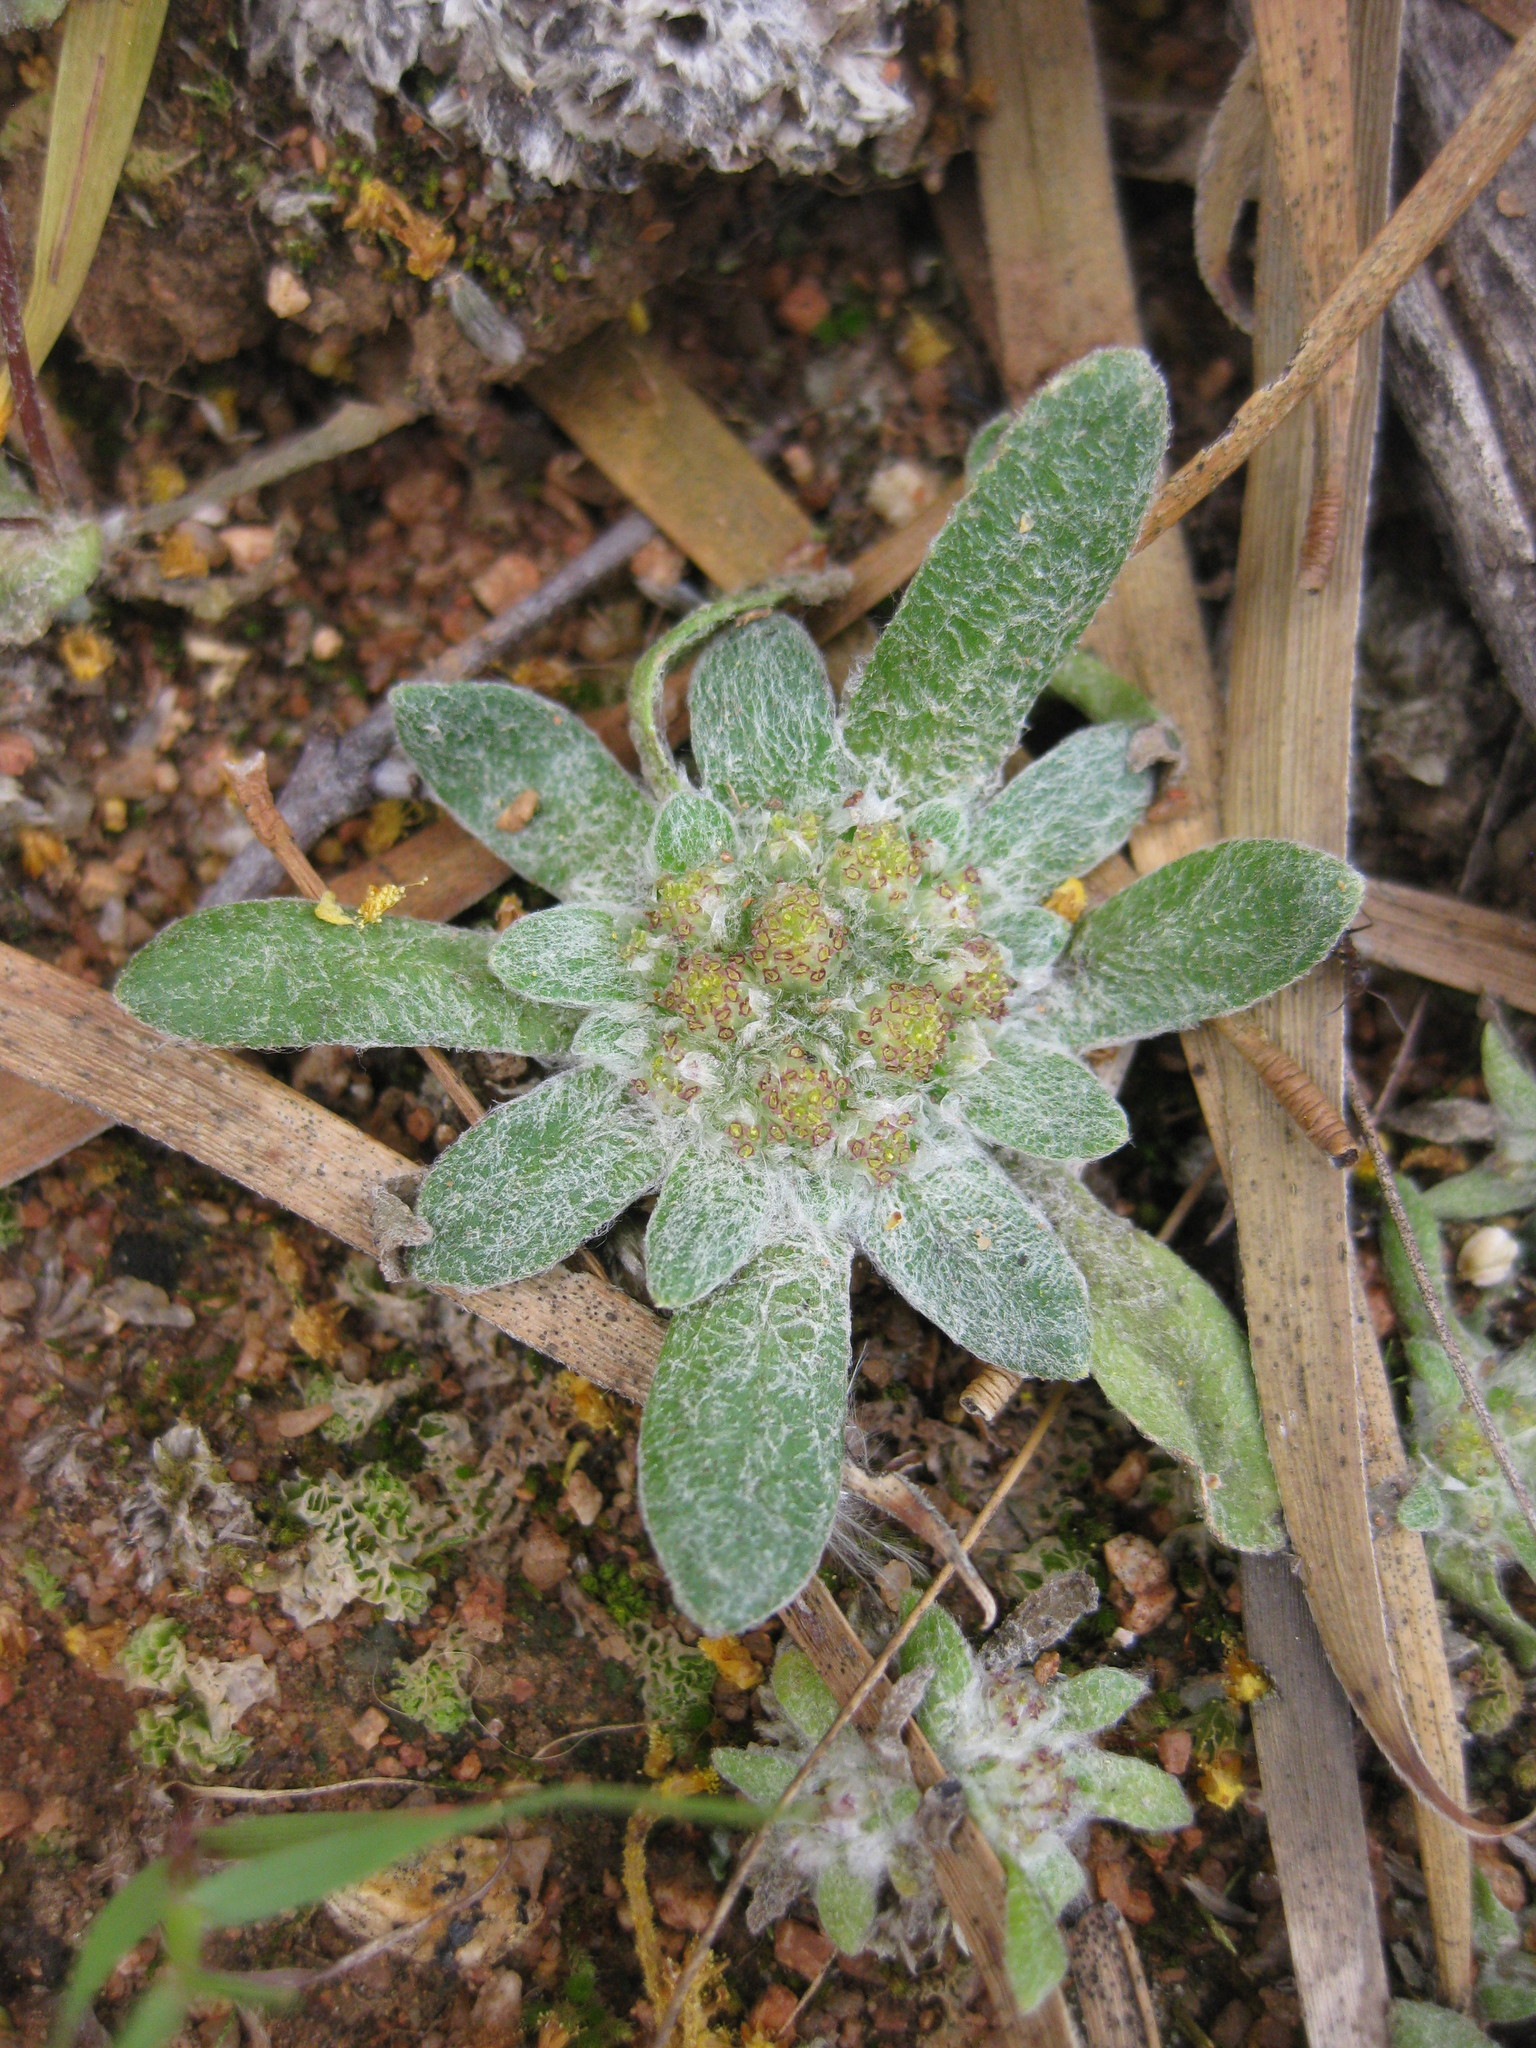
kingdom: Plantae
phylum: Tracheophyta
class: Magnoliopsida
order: Asterales
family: Asteraceae
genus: Chthonocephalus
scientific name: Chthonocephalus pseudevax
